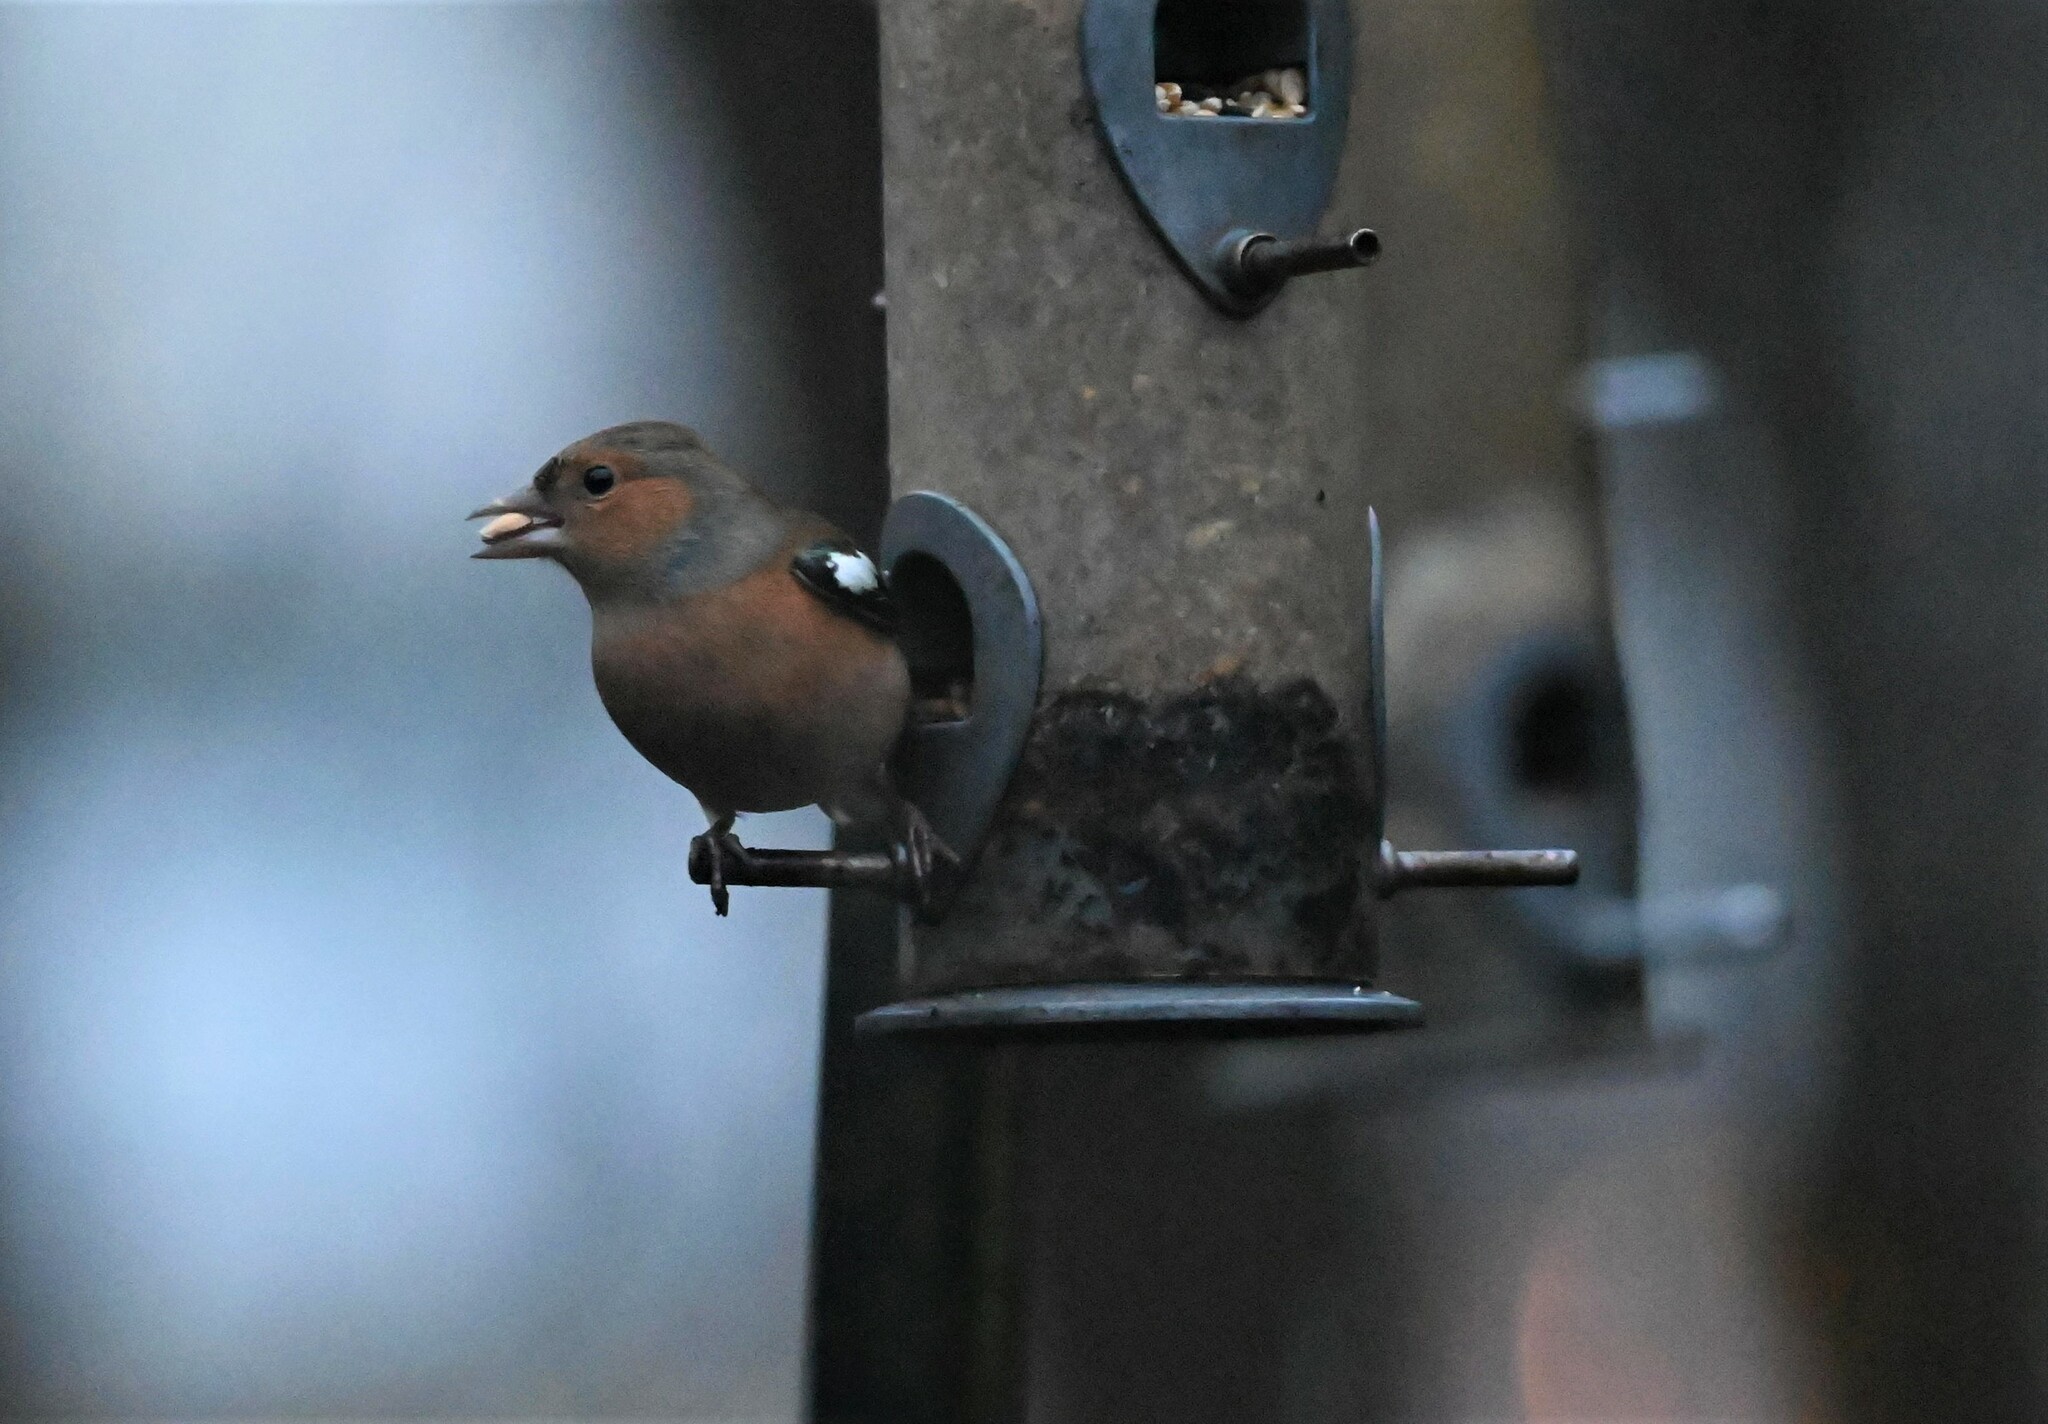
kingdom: Animalia
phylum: Chordata
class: Aves
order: Passeriformes
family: Fringillidae
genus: Fringilla
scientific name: Fringilla coelebs
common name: Common chaffinch
